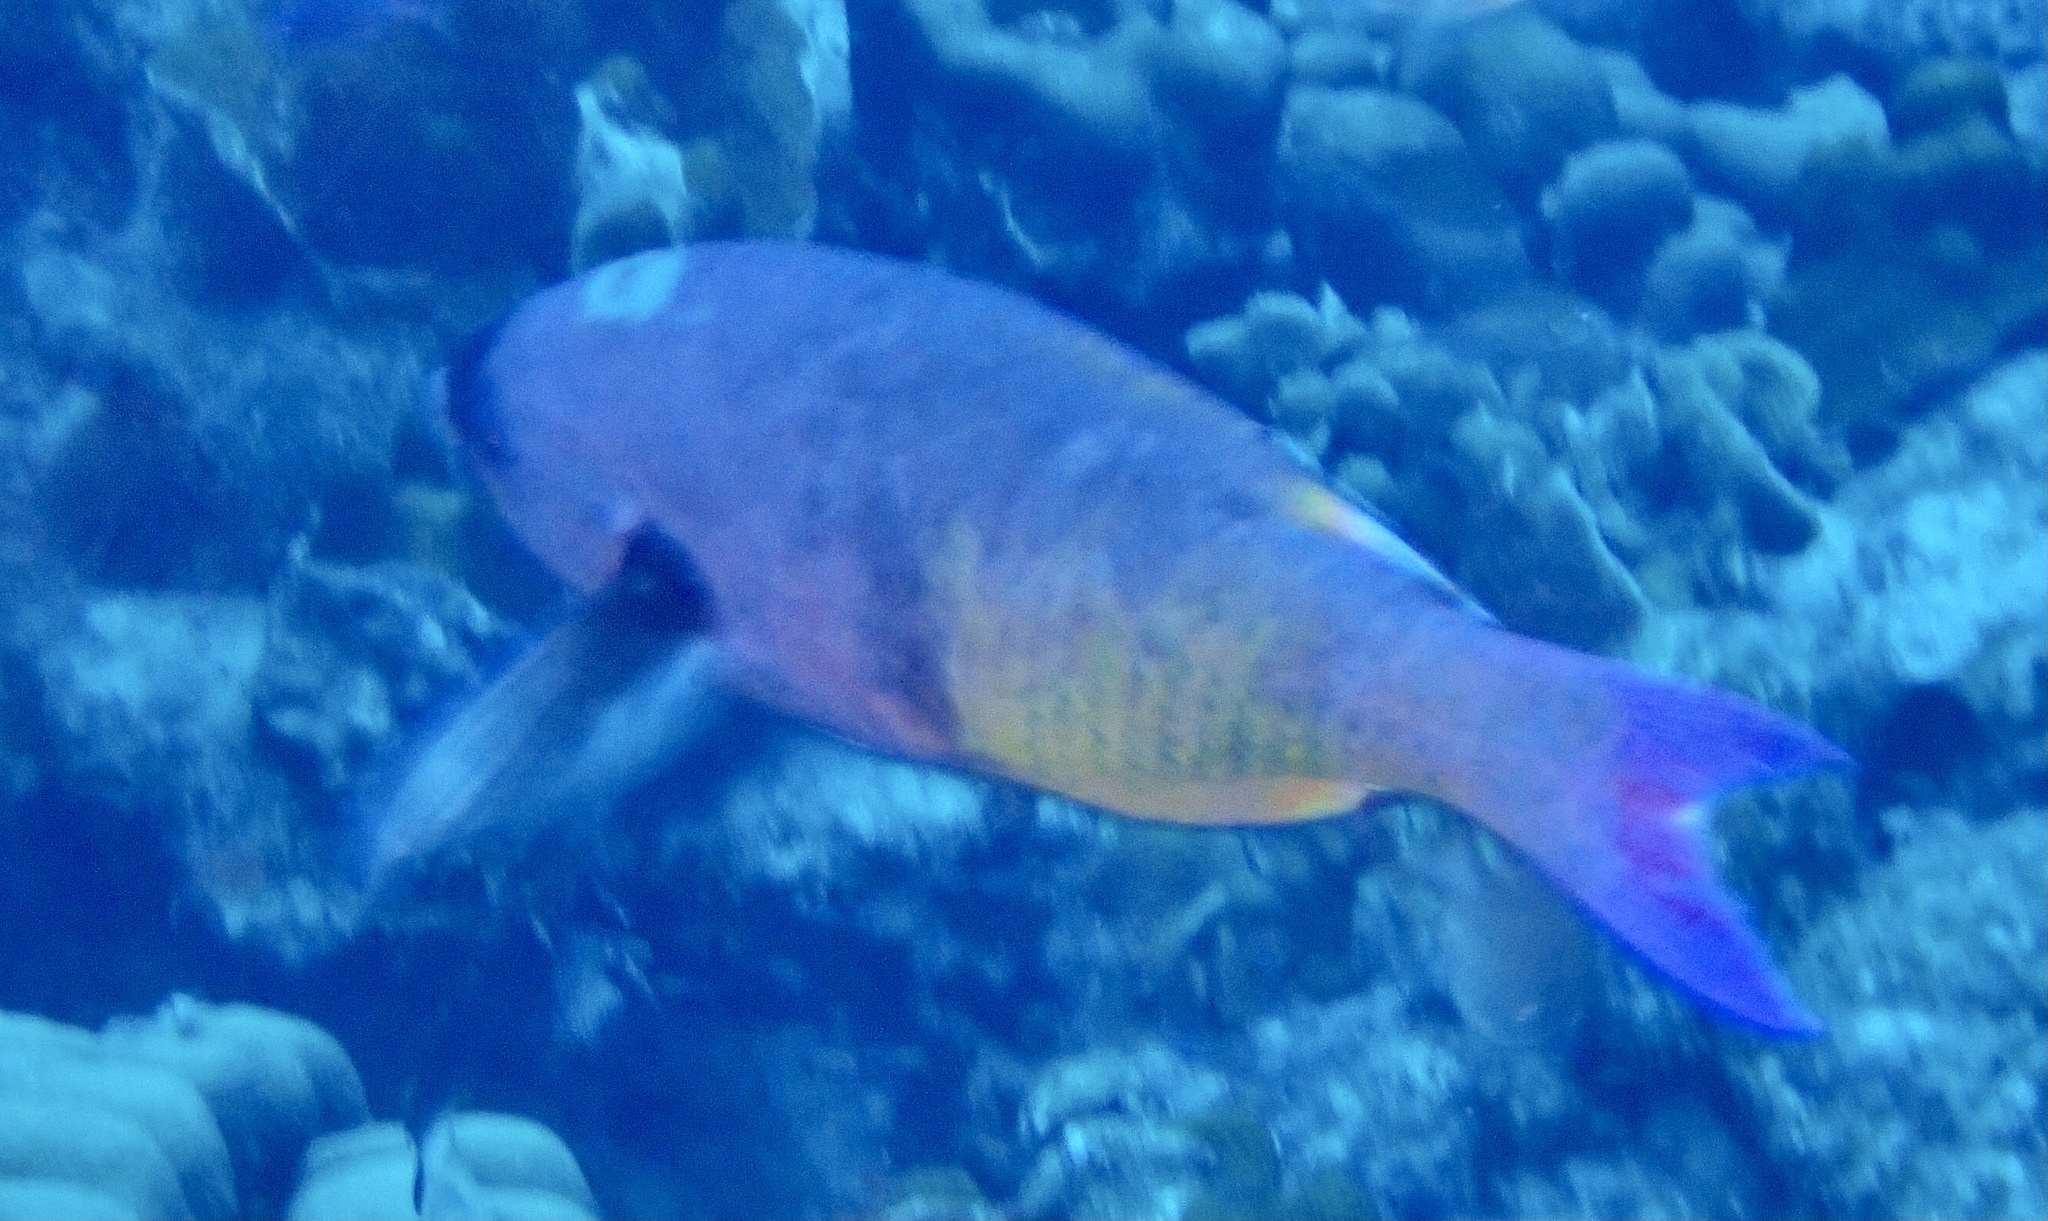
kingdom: Animalia
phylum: Chordata
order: Perciformes
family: Labridae
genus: Bodianus
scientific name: Bodianus
